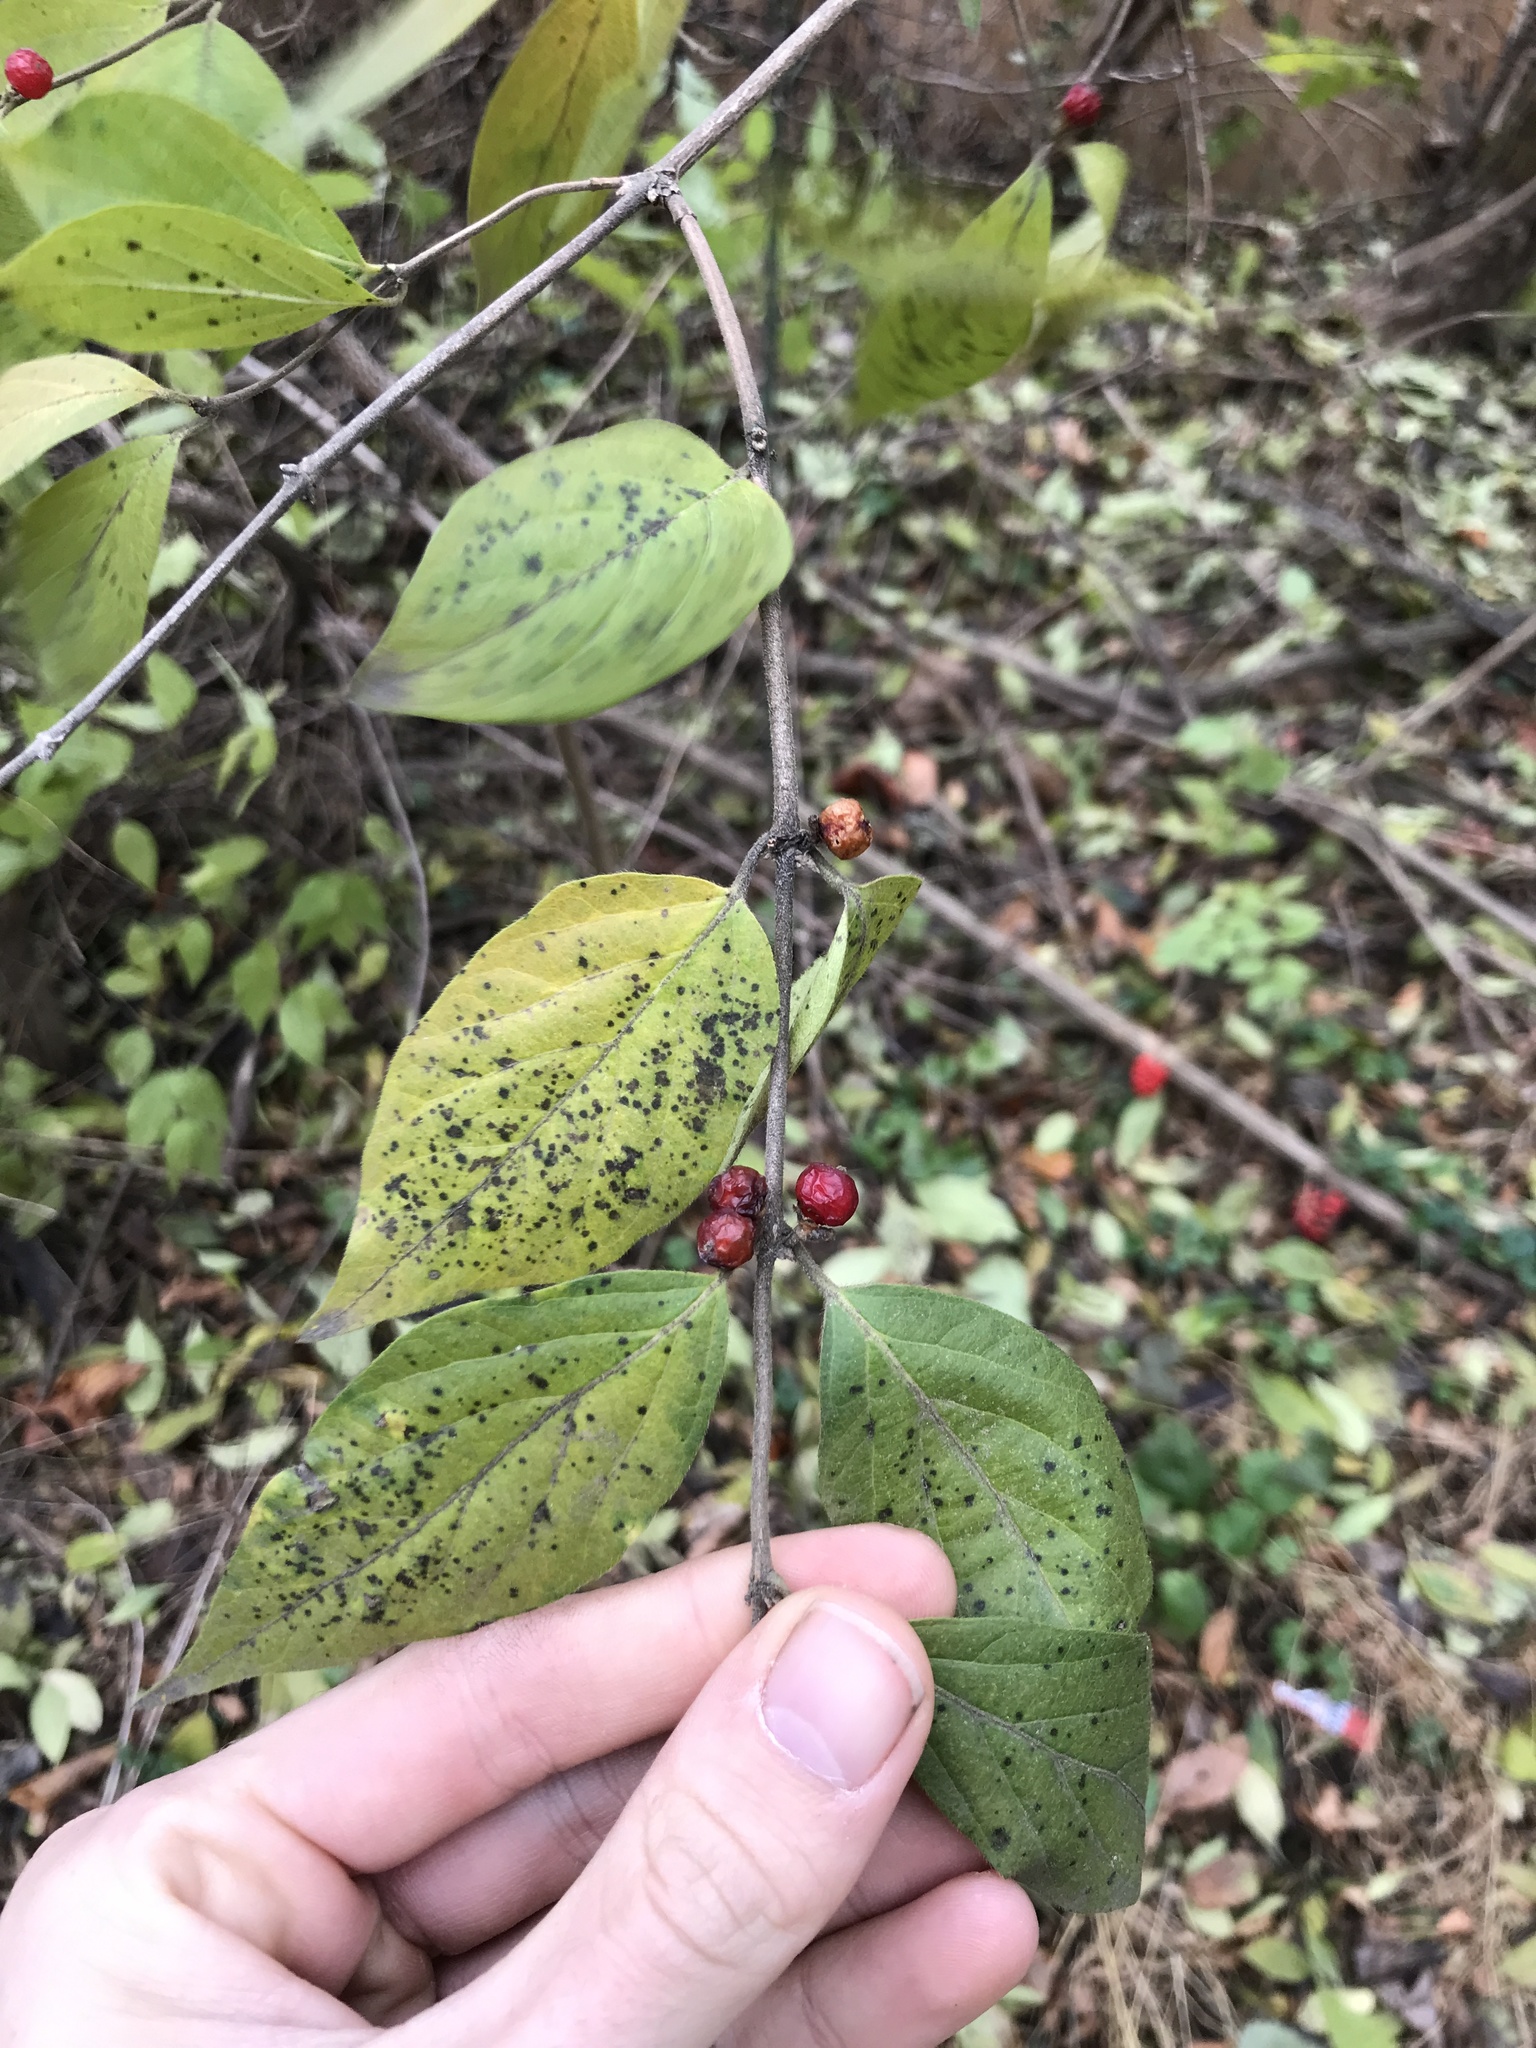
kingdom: Plantae
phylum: Tracheophyta
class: Magnoliopsida
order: Dipsacales
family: Caprifoliaceae
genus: Lonicera
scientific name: Lonicera maackii
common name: Amur honeysuckle
